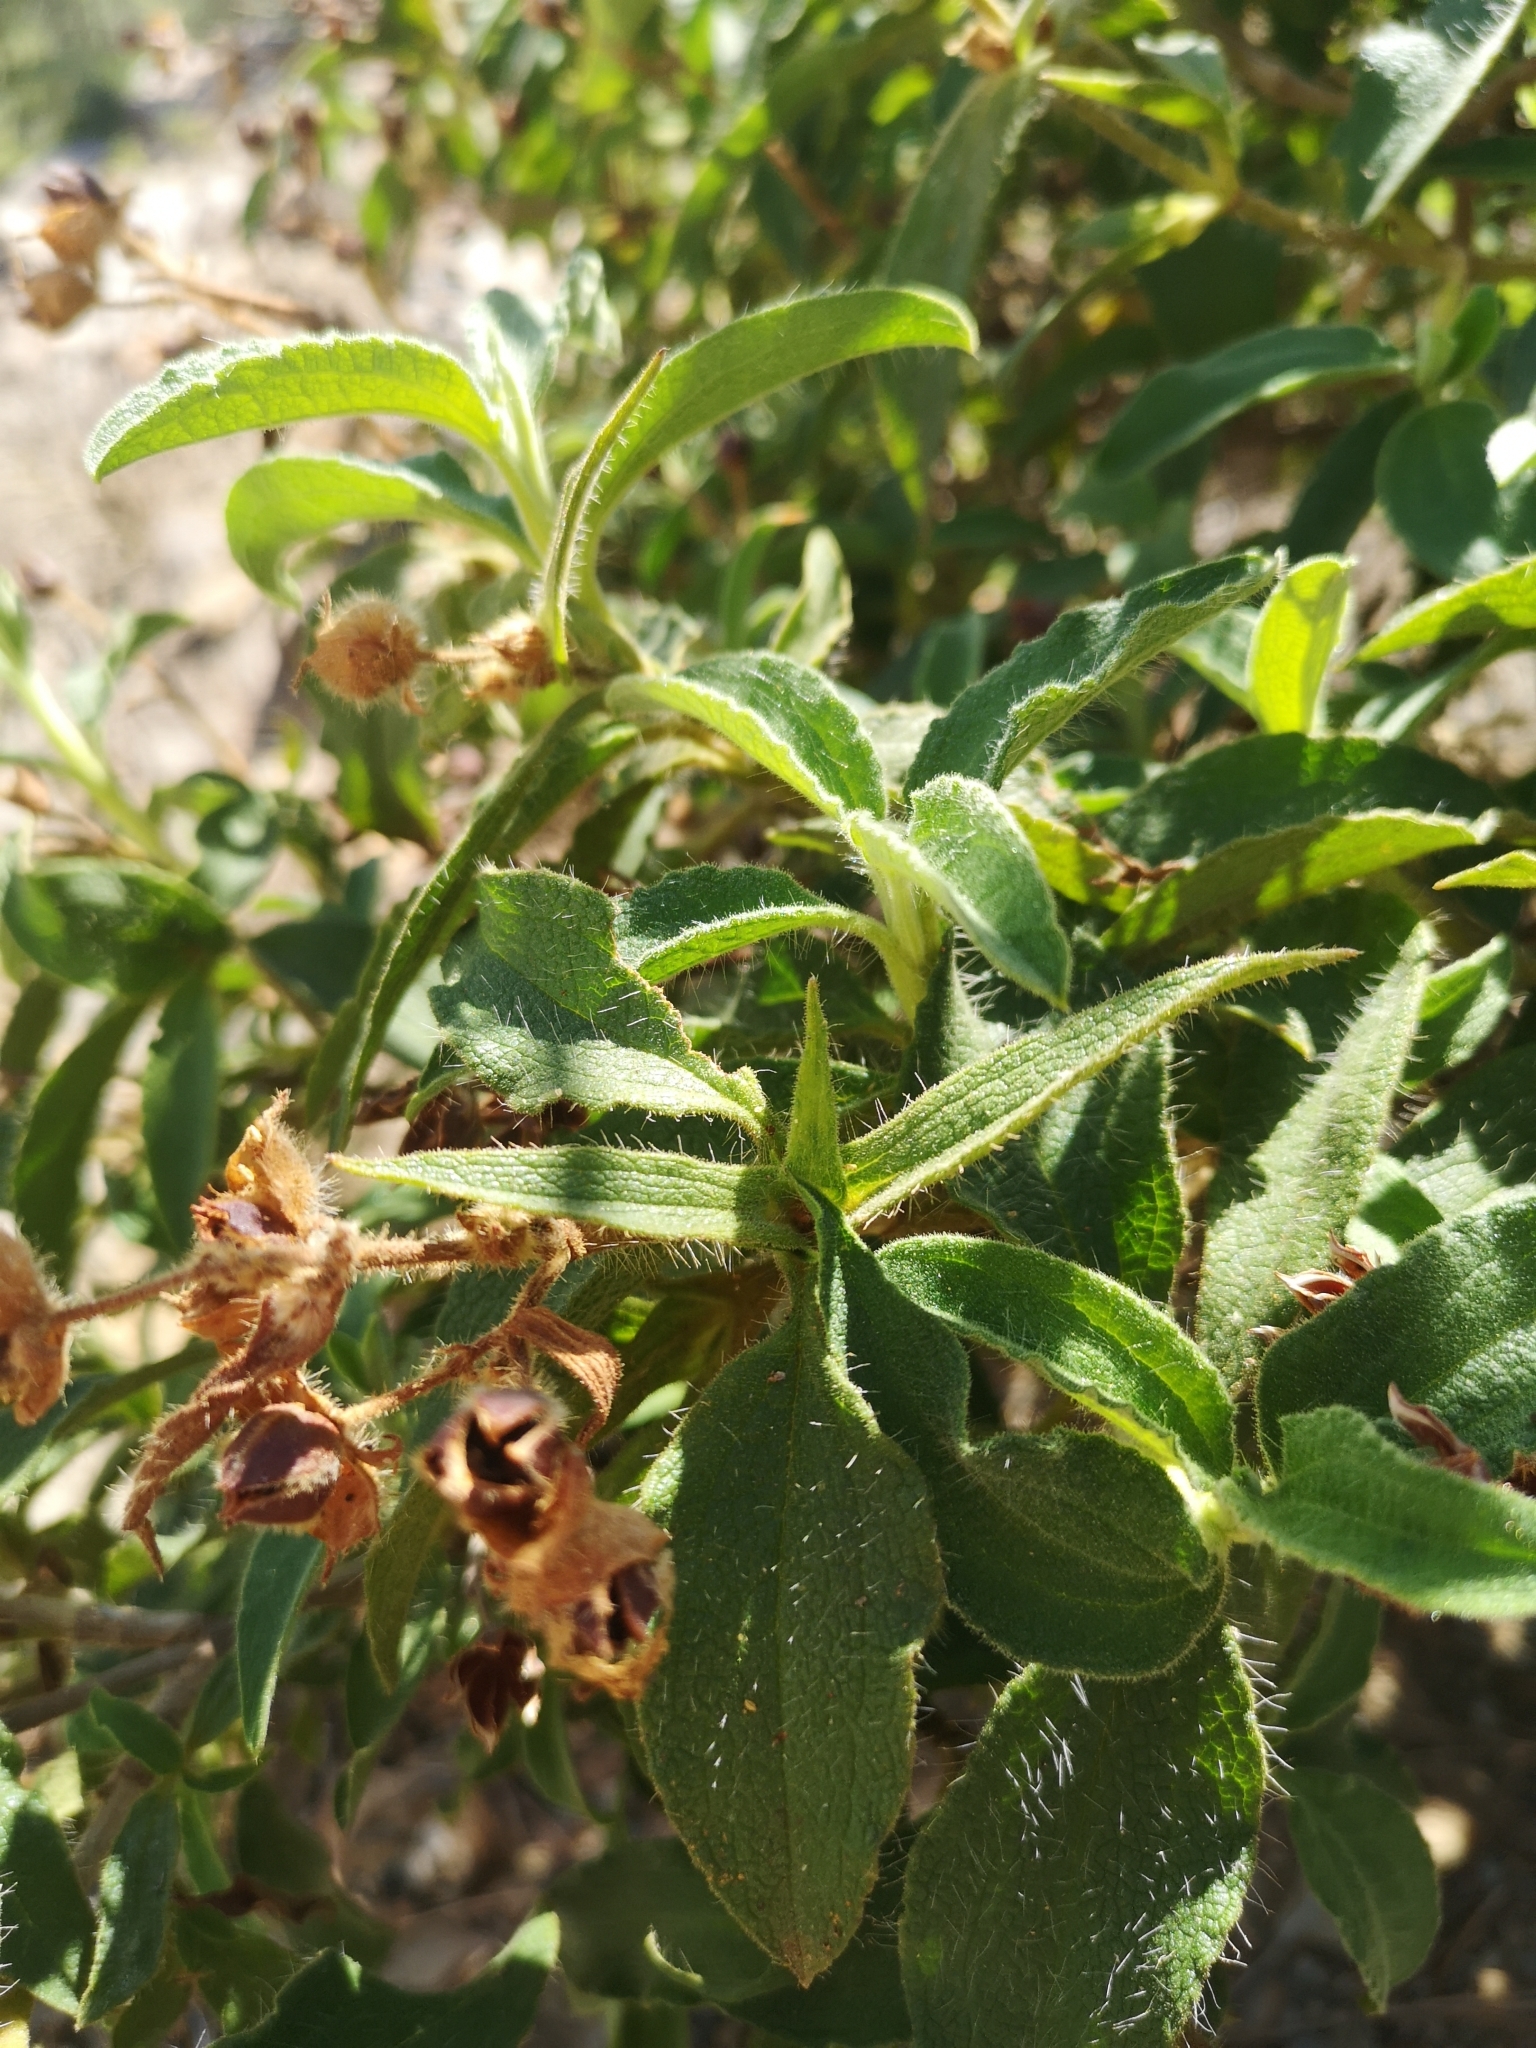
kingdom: Plantae
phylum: Tracheophyta
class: Magnoliopsida
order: Malvales
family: Cistaceae
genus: Cistus
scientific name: Cistus symphytifolius
